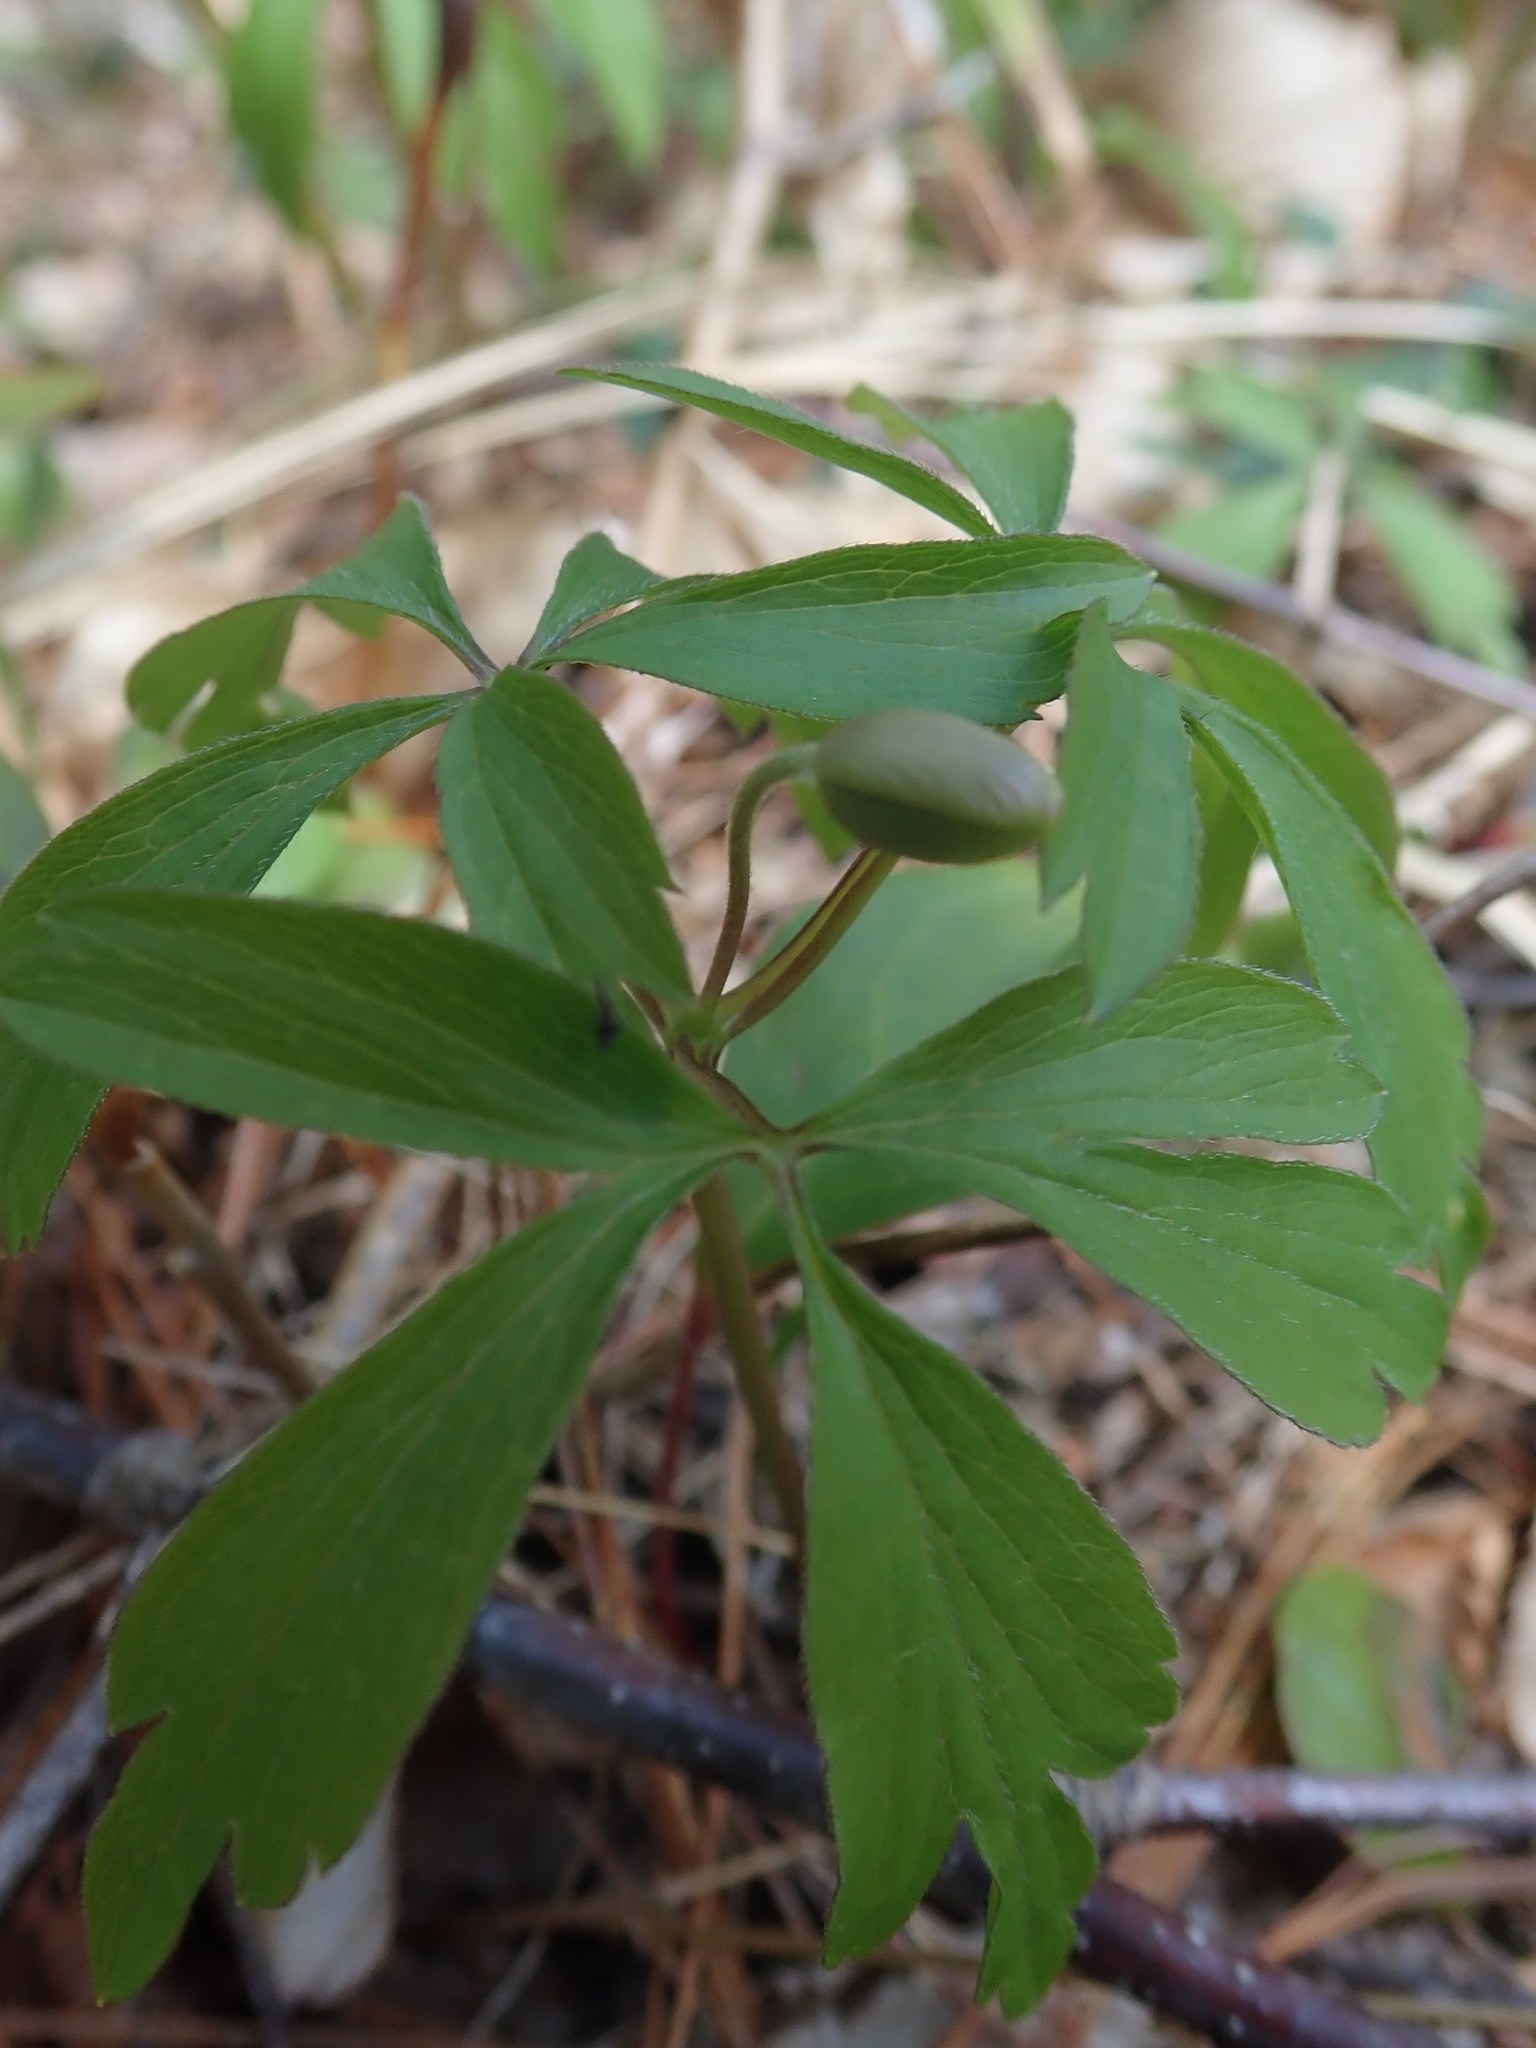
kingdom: Plantae
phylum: Tracheophyta
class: Magnoliopsida
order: Ranunculales
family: Ranunculaceae
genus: Anemone
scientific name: Anemone quinquefolia
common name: Wood anemone
